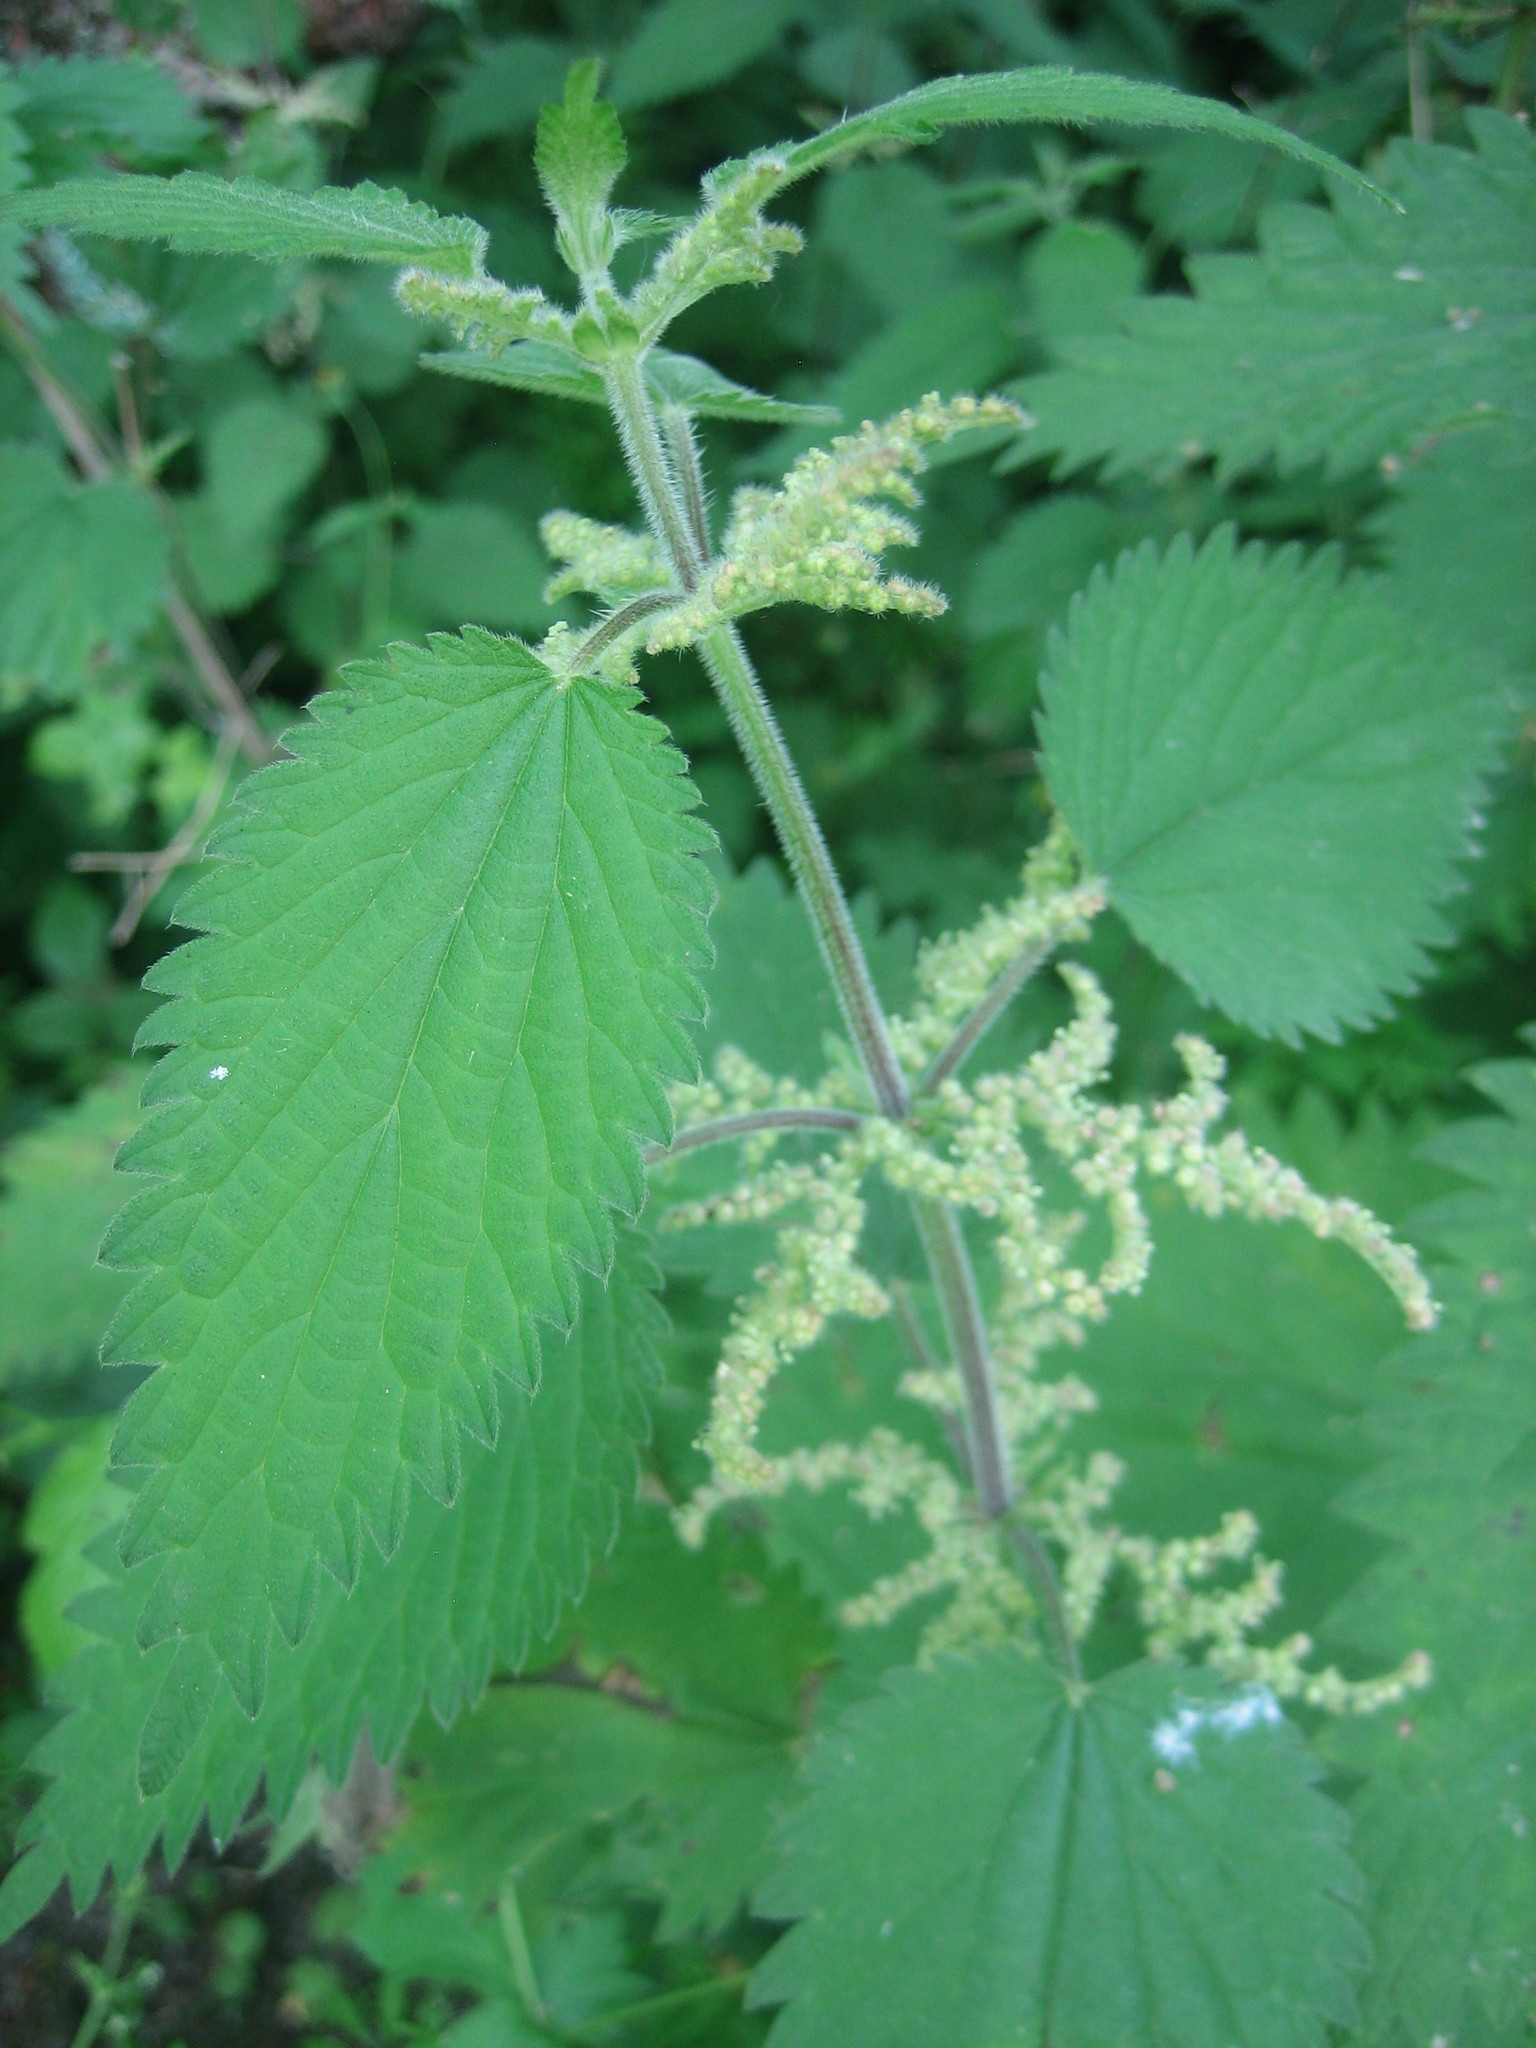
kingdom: Plantae
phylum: Tracheophyta
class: Magnoliopsida
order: Rosales
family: Urticaceae
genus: Urtica
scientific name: Urtica dioica
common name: Common nettle
